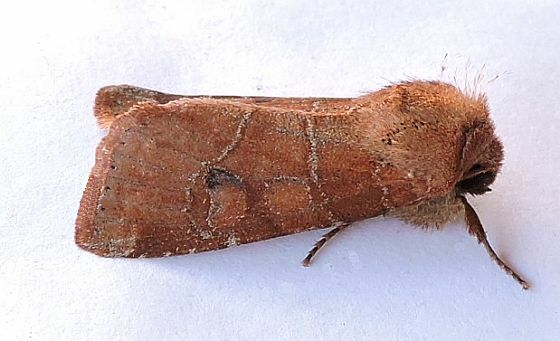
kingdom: Animalia
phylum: Arthropoda
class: Insecta
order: Lepidoptera
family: Noctuidae
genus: Crocigrapha
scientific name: Crocigrapha normani
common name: Norman's quaker
